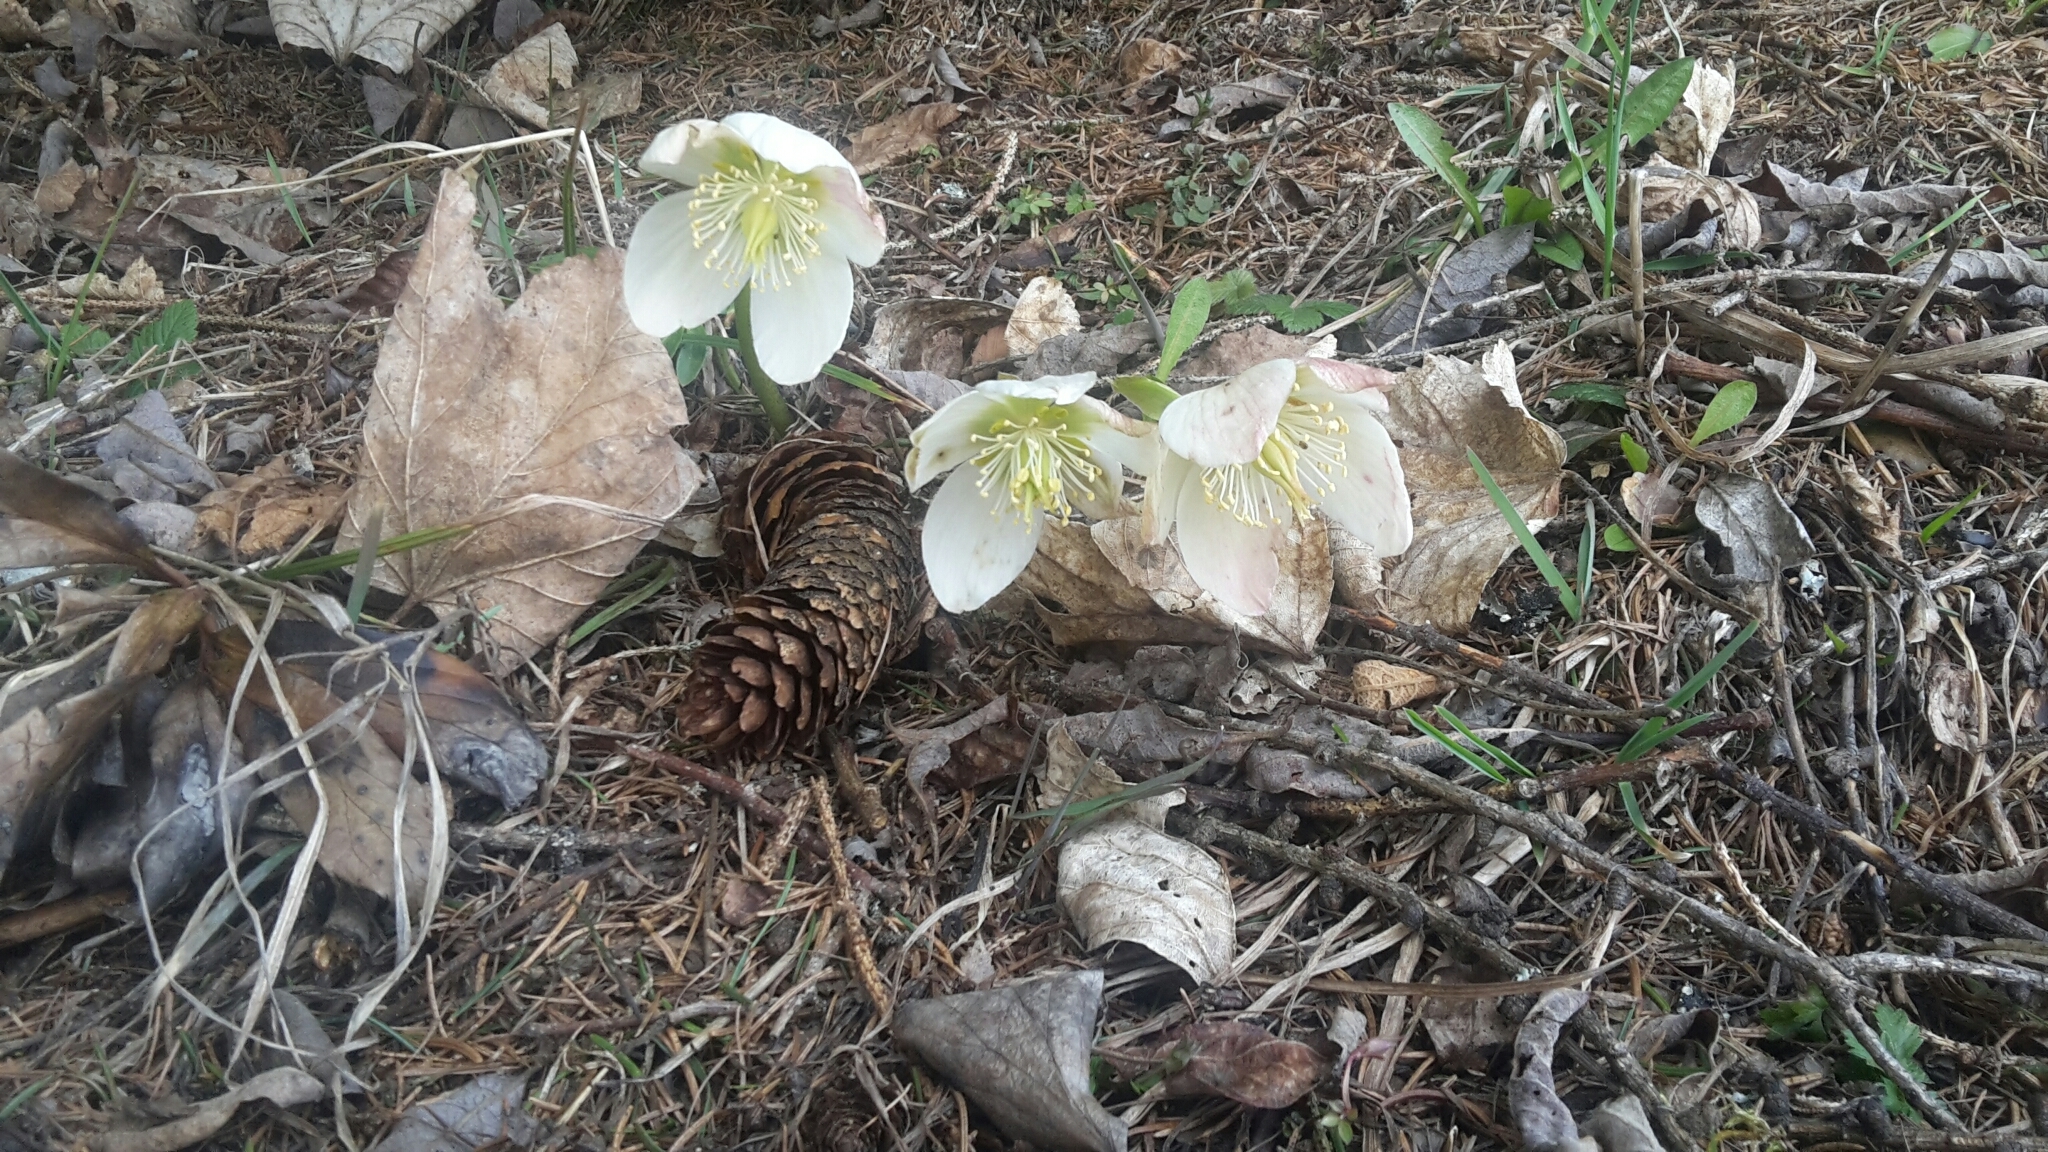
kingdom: Plantae
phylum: Tracheophyta
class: Magnoliopsida
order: Ranunculales
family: Ranunculaceae
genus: Helleborus
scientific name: Helleborus niger
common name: Black hellebore
